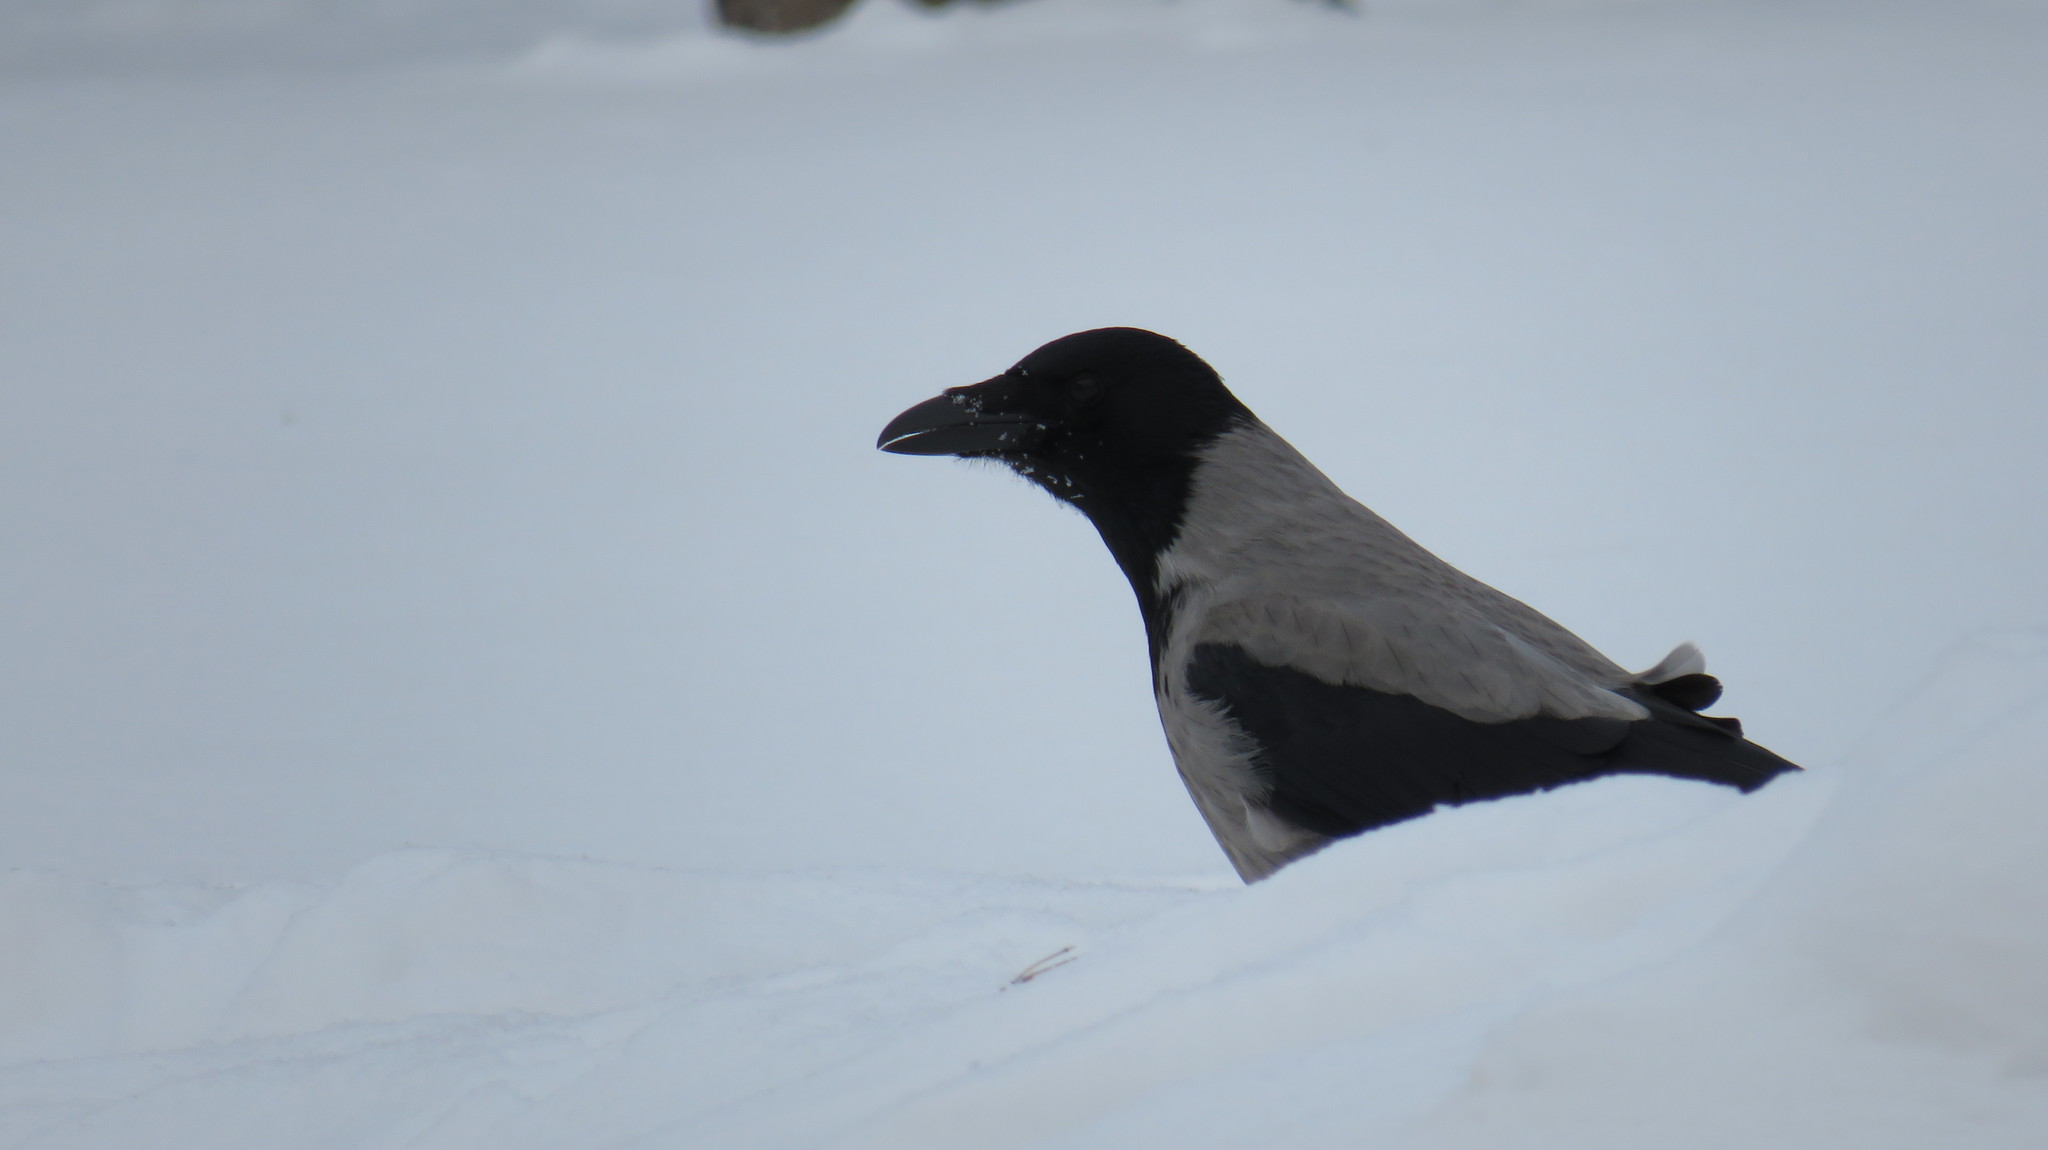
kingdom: Animalia
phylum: Chordata
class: Aves
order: Passeriformes
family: Corvidae
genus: Corvus
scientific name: Corvus cornix
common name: Hooded crow
